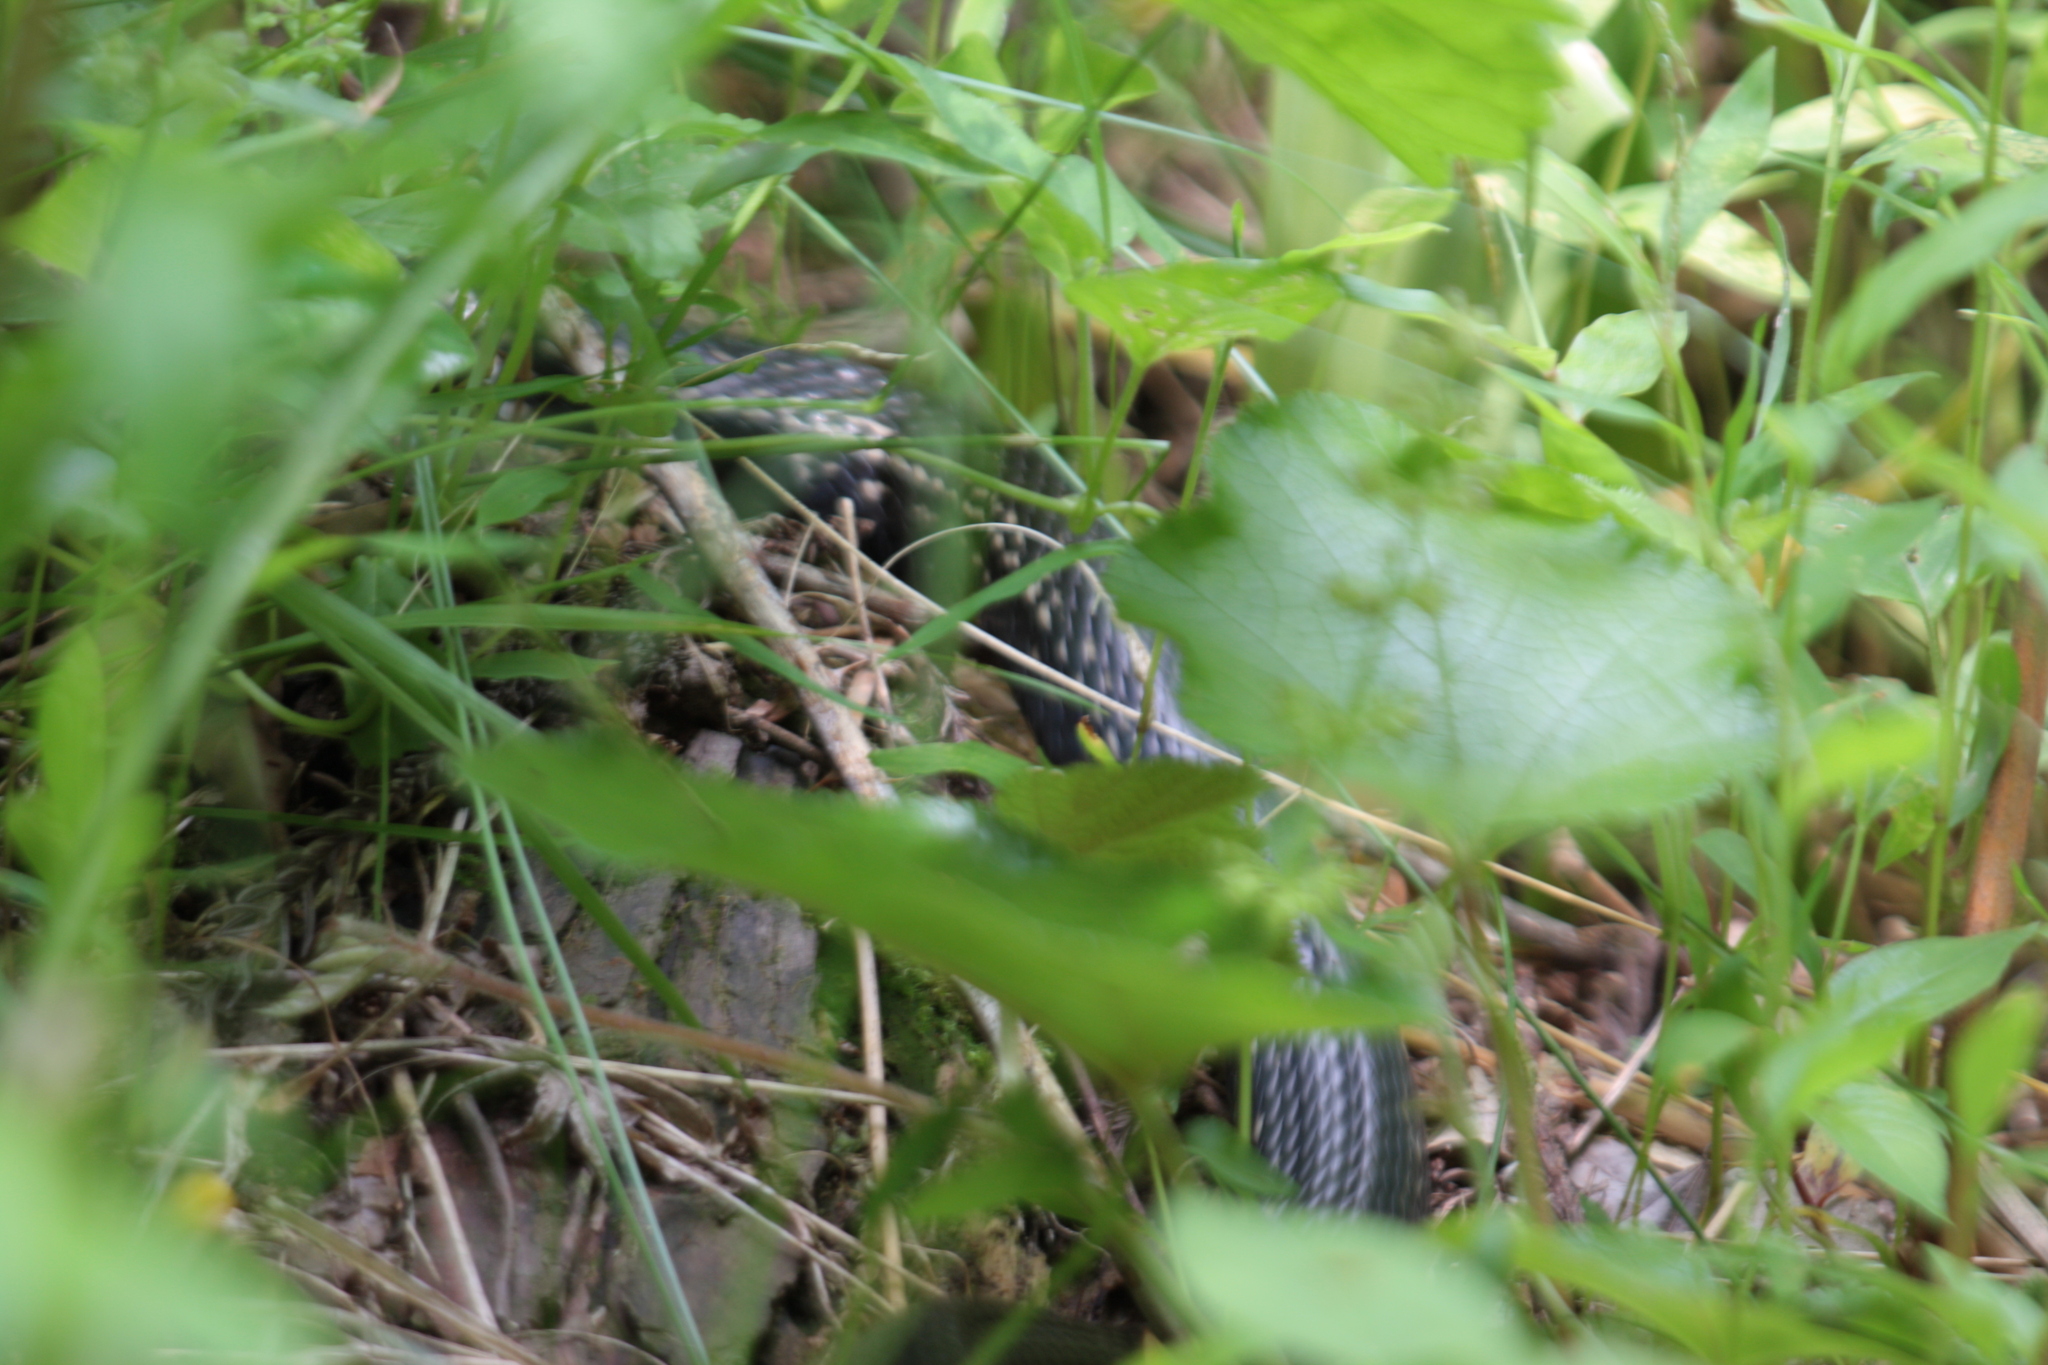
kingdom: Animalia
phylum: Chordata
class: Squamata
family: Colubridae
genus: Elaphe
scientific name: Elaphe quadrivirgata
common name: Japanese four-lined ratsnake
